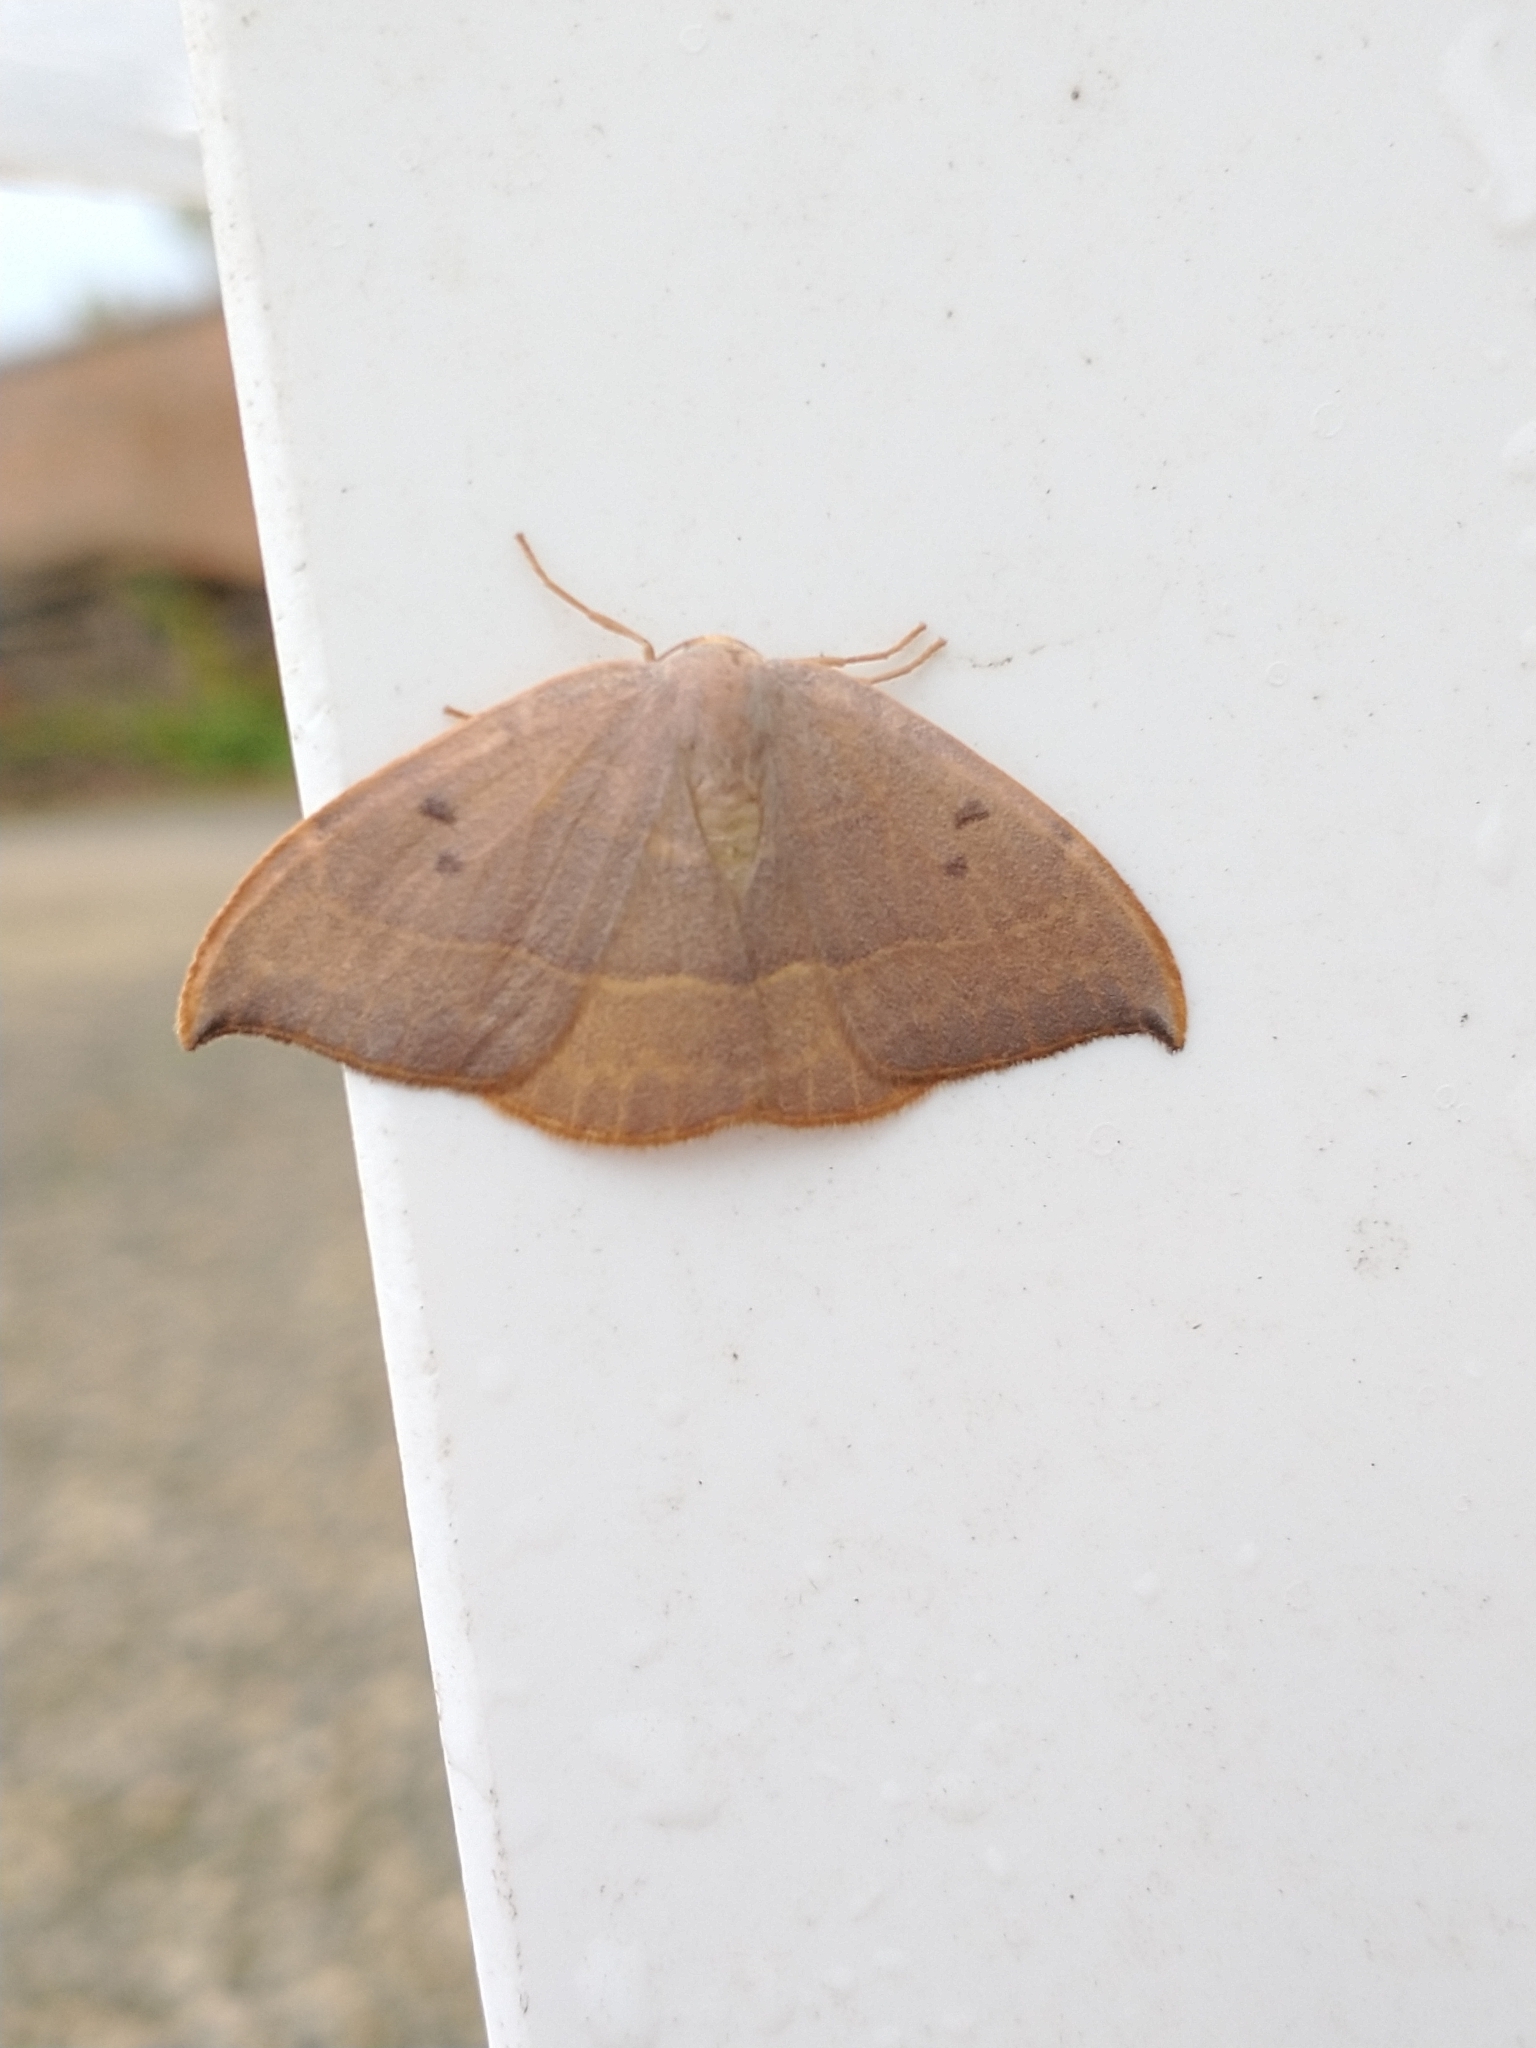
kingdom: Animalia
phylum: Arthropoda
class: Insecta
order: Lepidoptera
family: Drepanidae
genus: Watsonalla
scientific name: Watsonalla binaria
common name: Oak hook-tip
